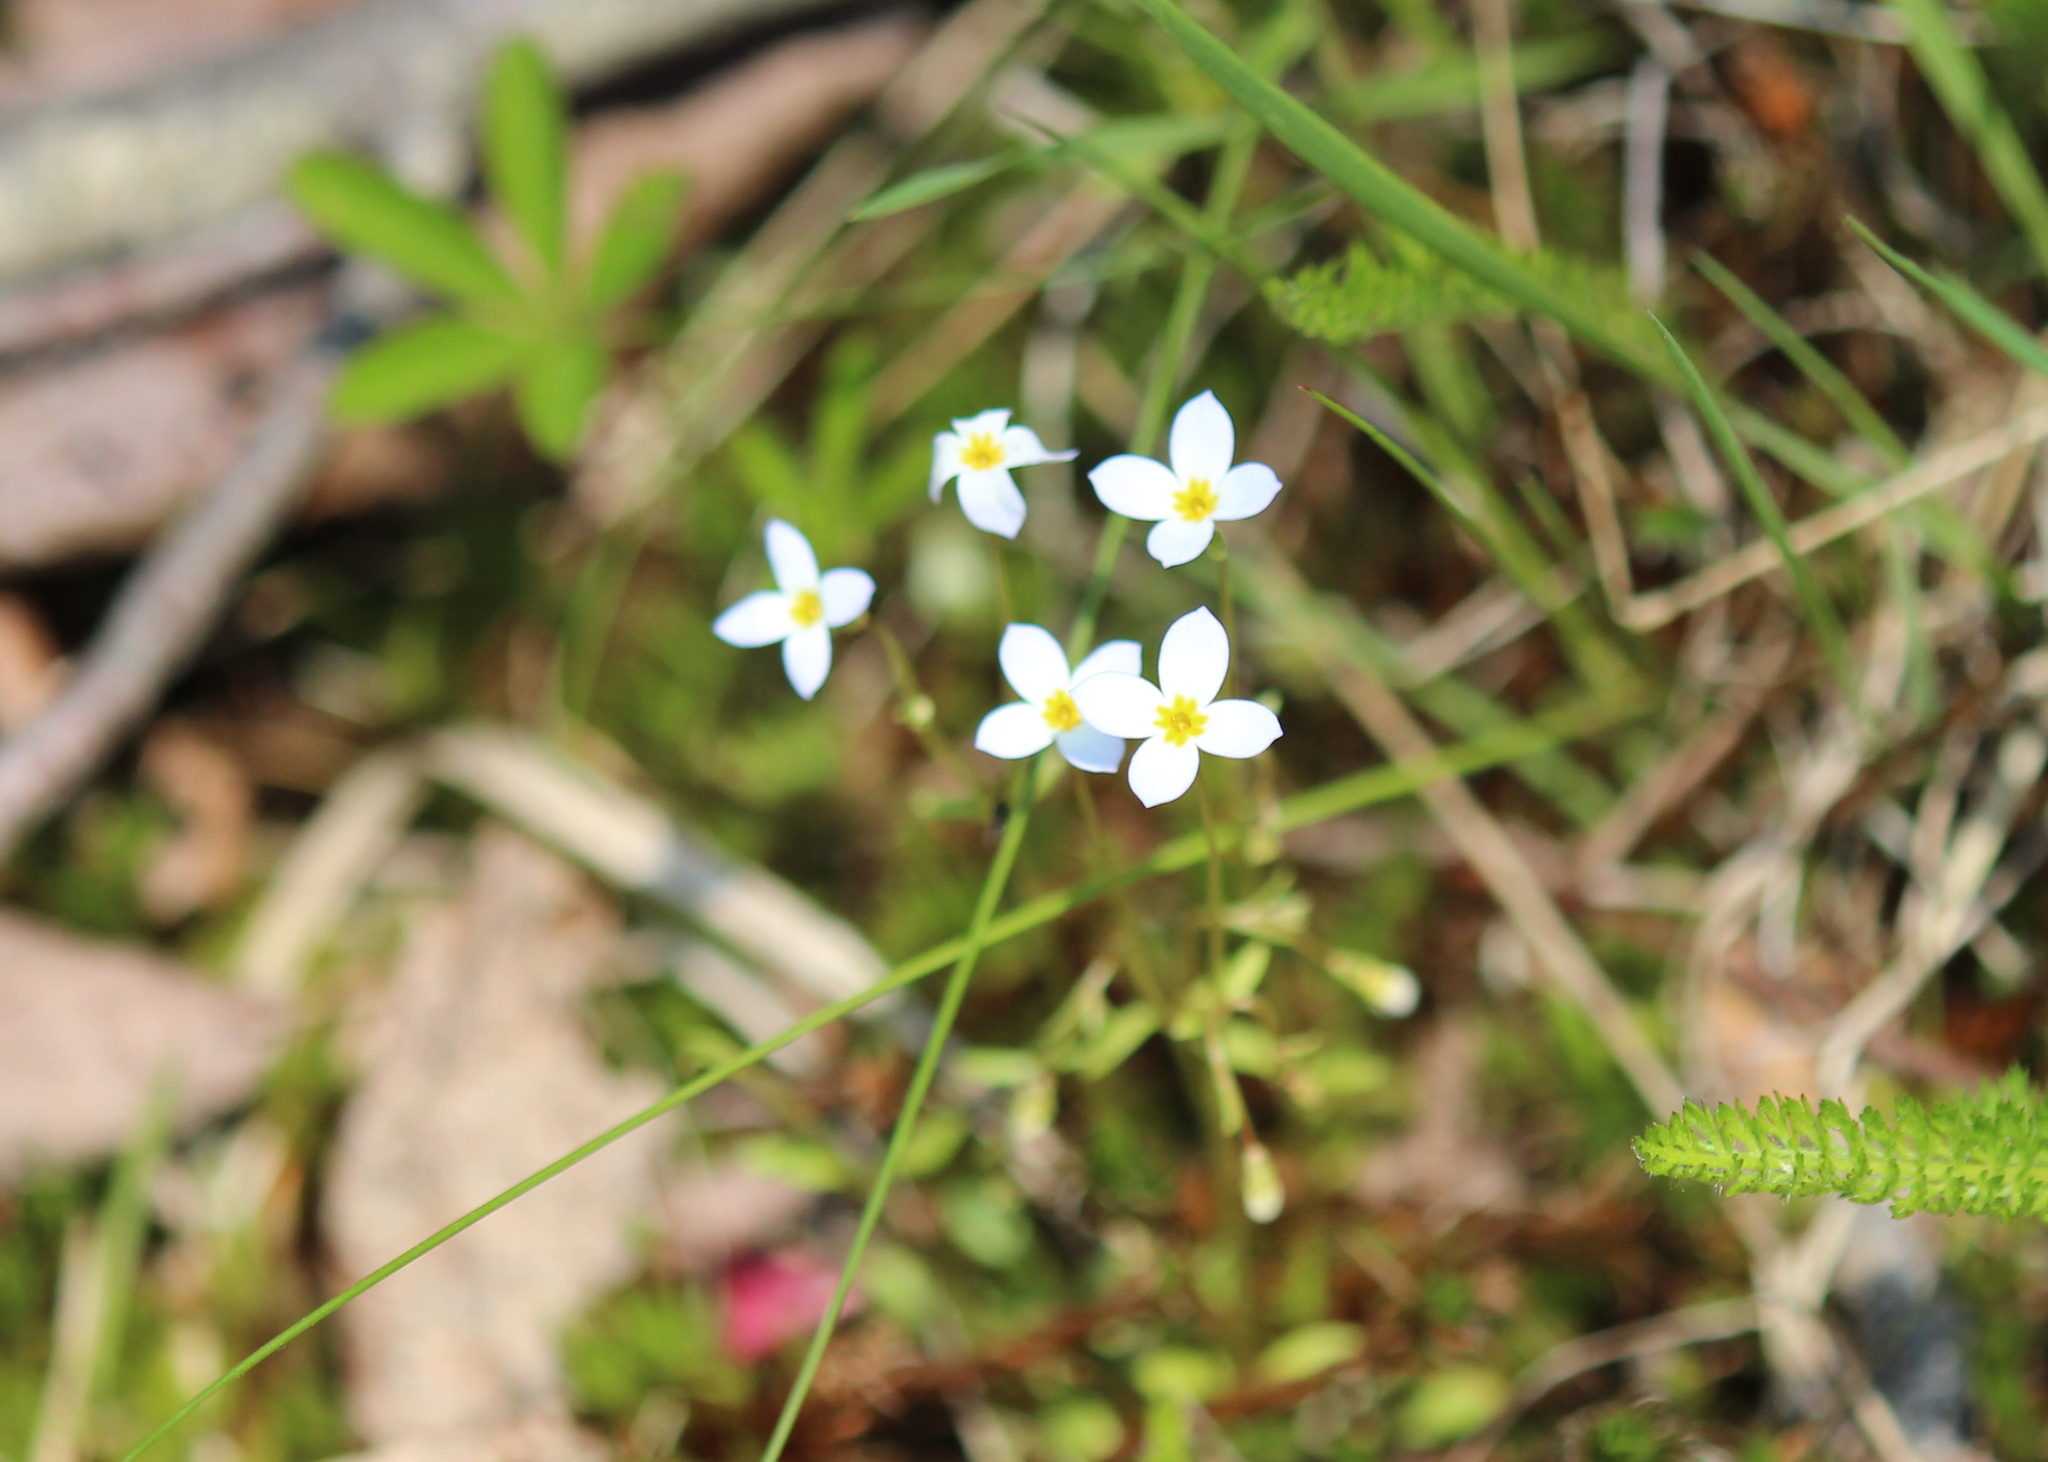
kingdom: Plantae
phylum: Tracheophyta
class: Magnoliopsida
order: Gentianales
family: Rubiaceae
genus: Houstonia
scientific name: Houstonia caerulea
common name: Bluets
